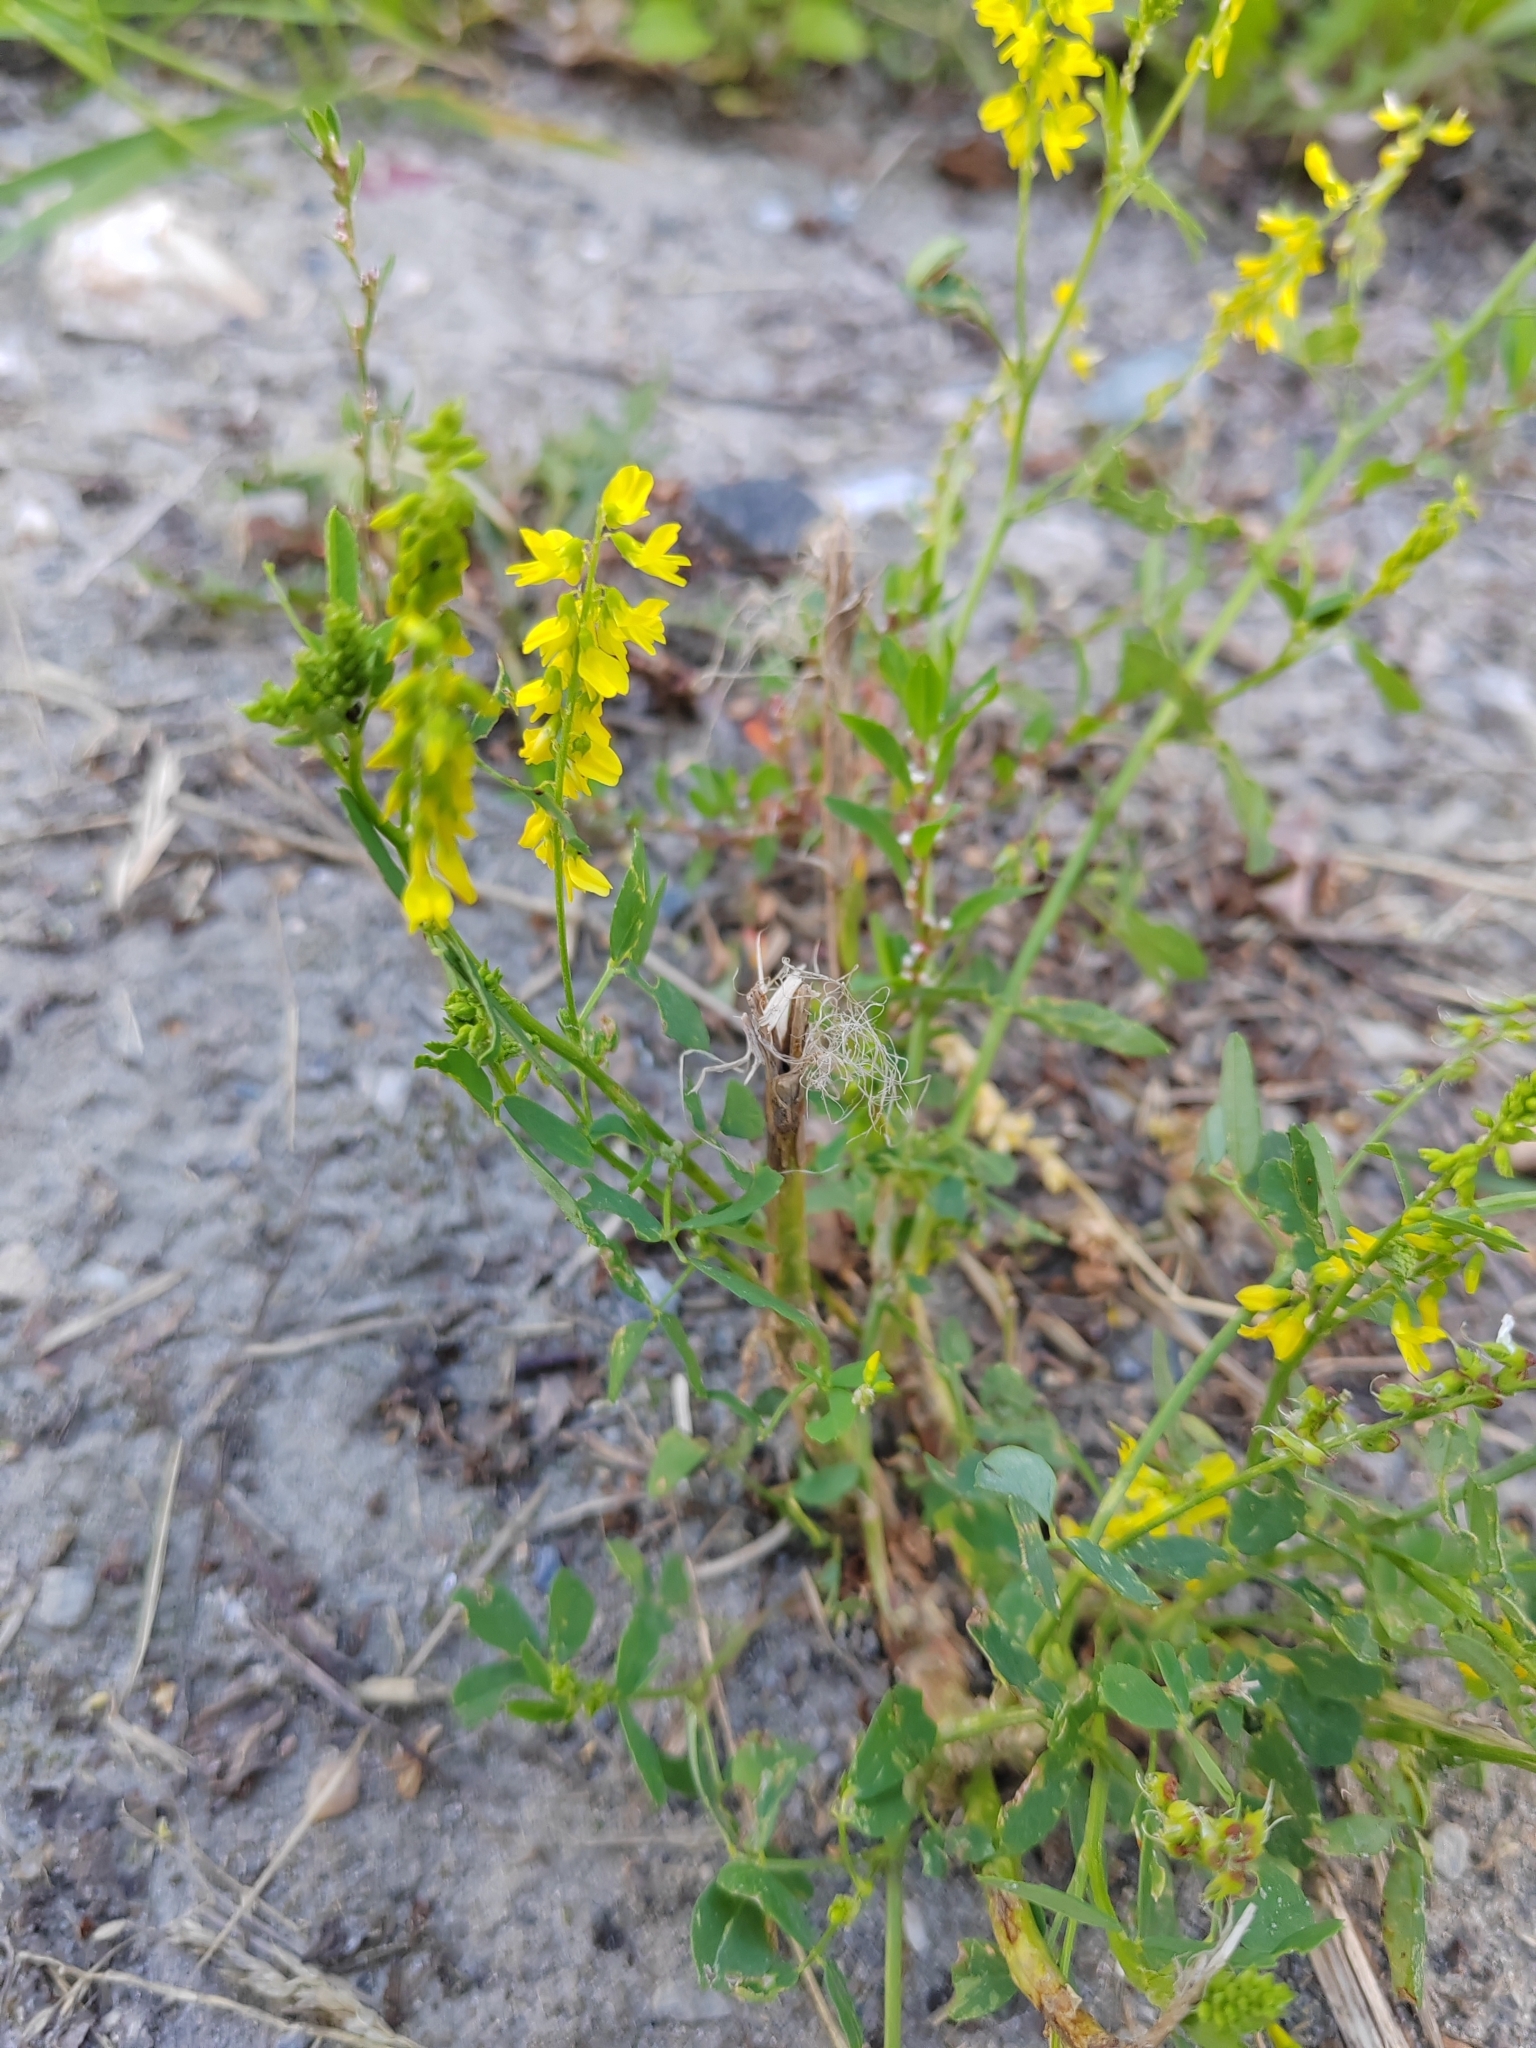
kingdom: Plantae
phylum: Tracheophyta
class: Magnoliopsida
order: Fabales
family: Fabaceae
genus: Melilotus
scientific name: Melilotus officinalis
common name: Sweetclover
